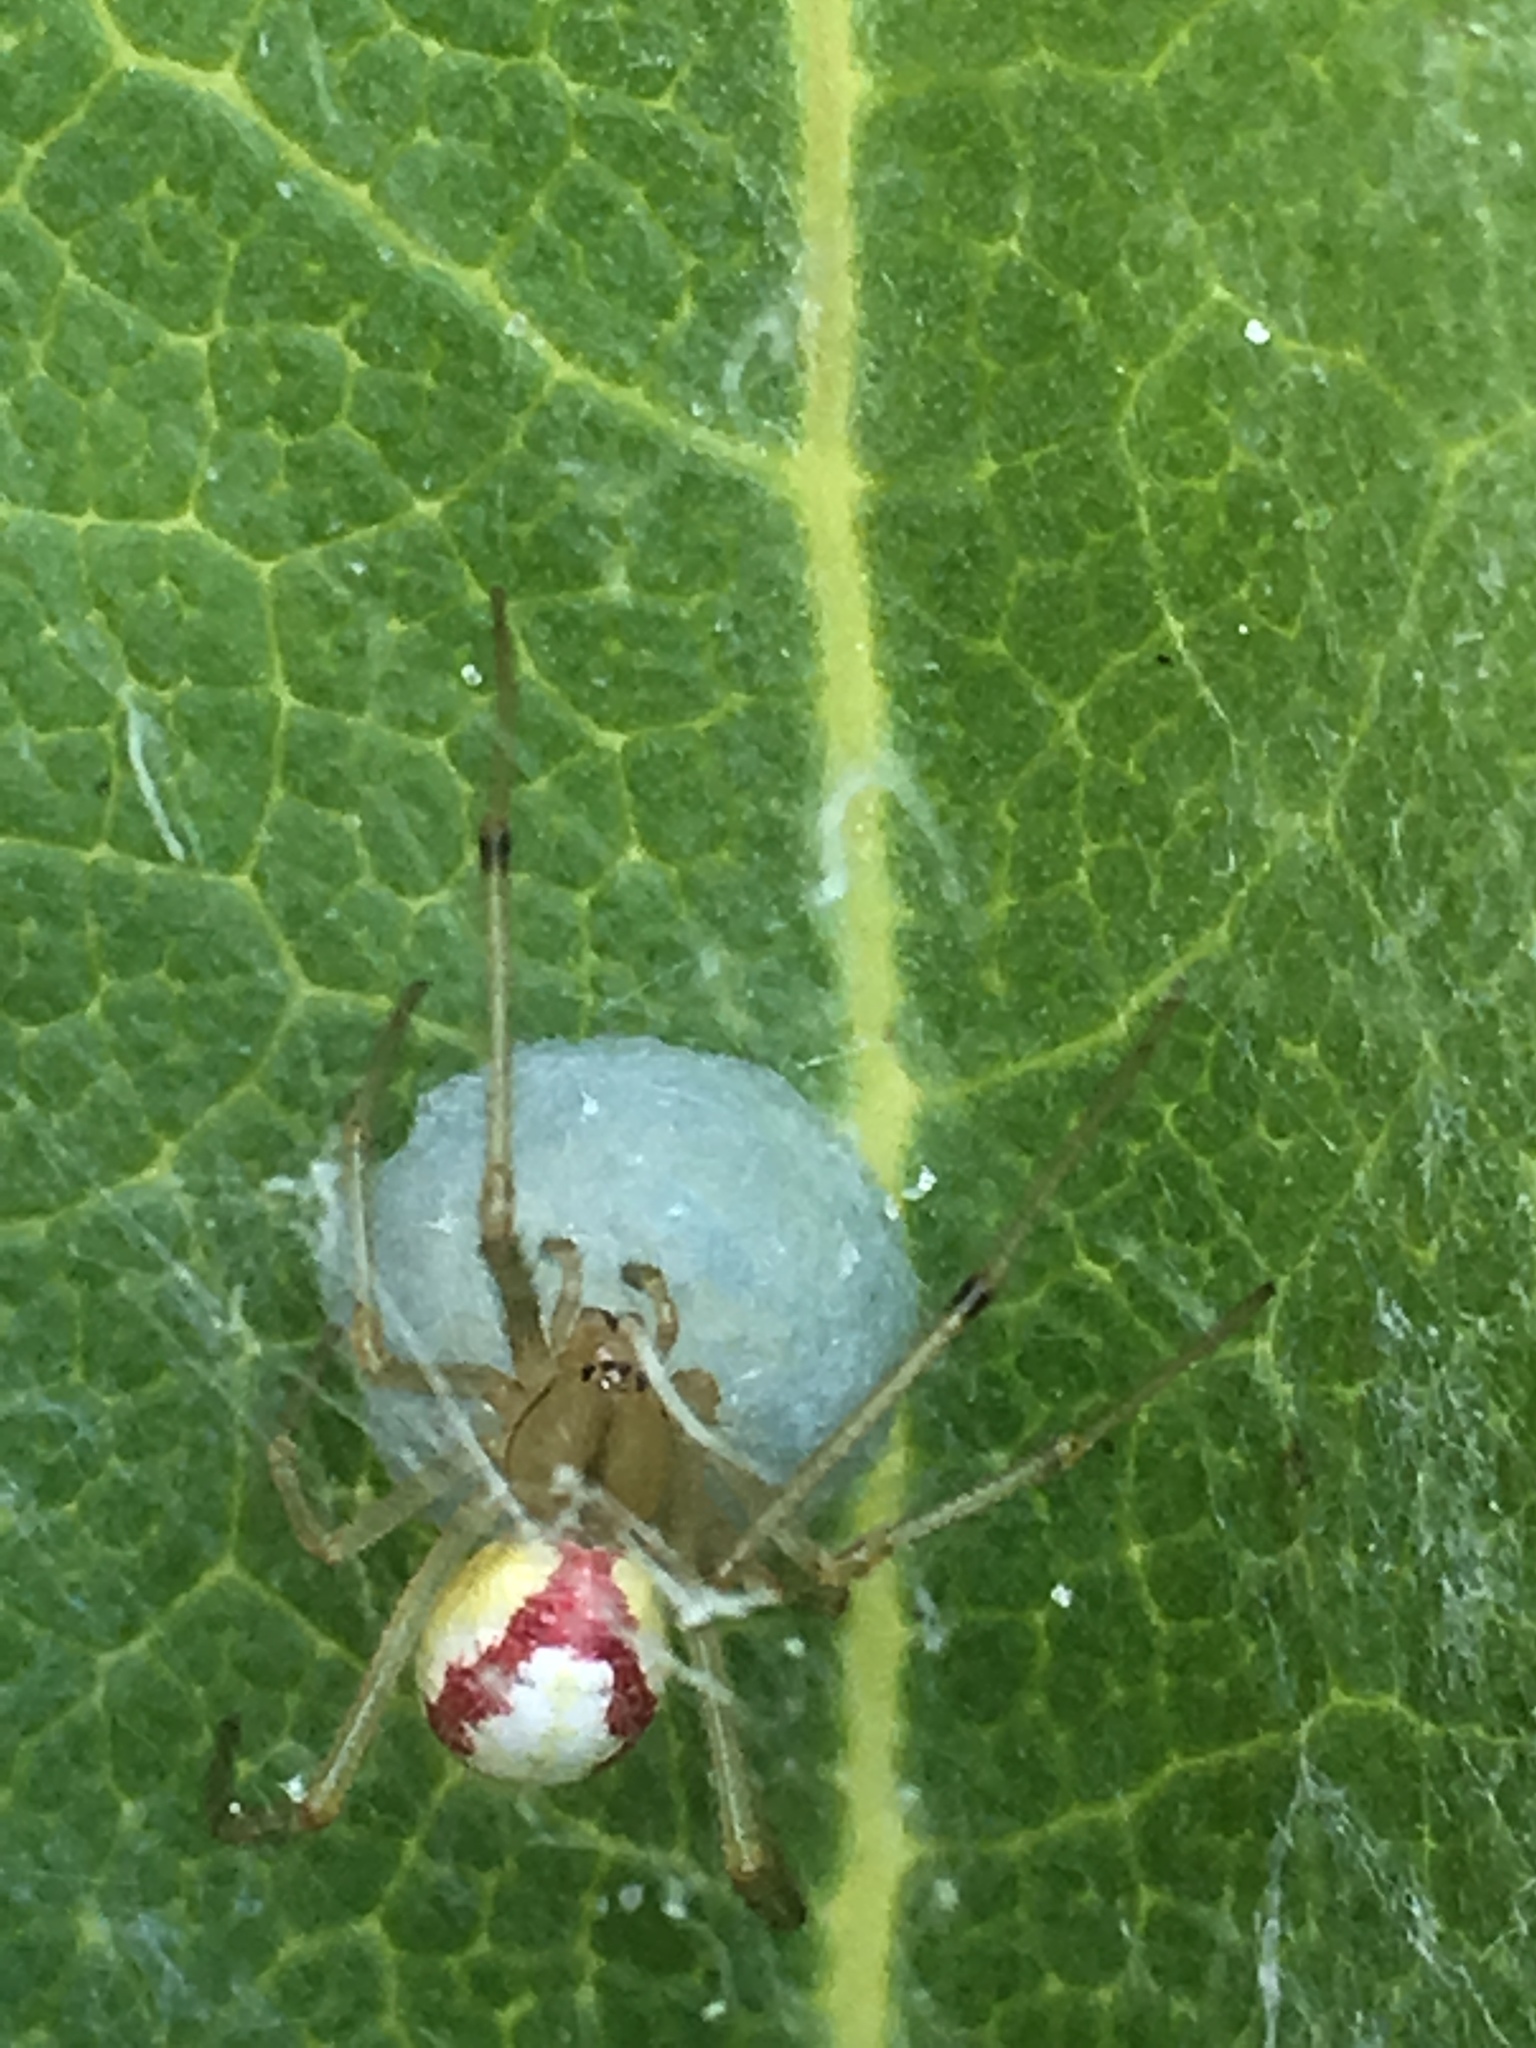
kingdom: Animalia
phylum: Arthropoda
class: Arachnida
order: Araneae
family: Theridiidae
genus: Enoplognatha
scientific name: Enoplognatha
